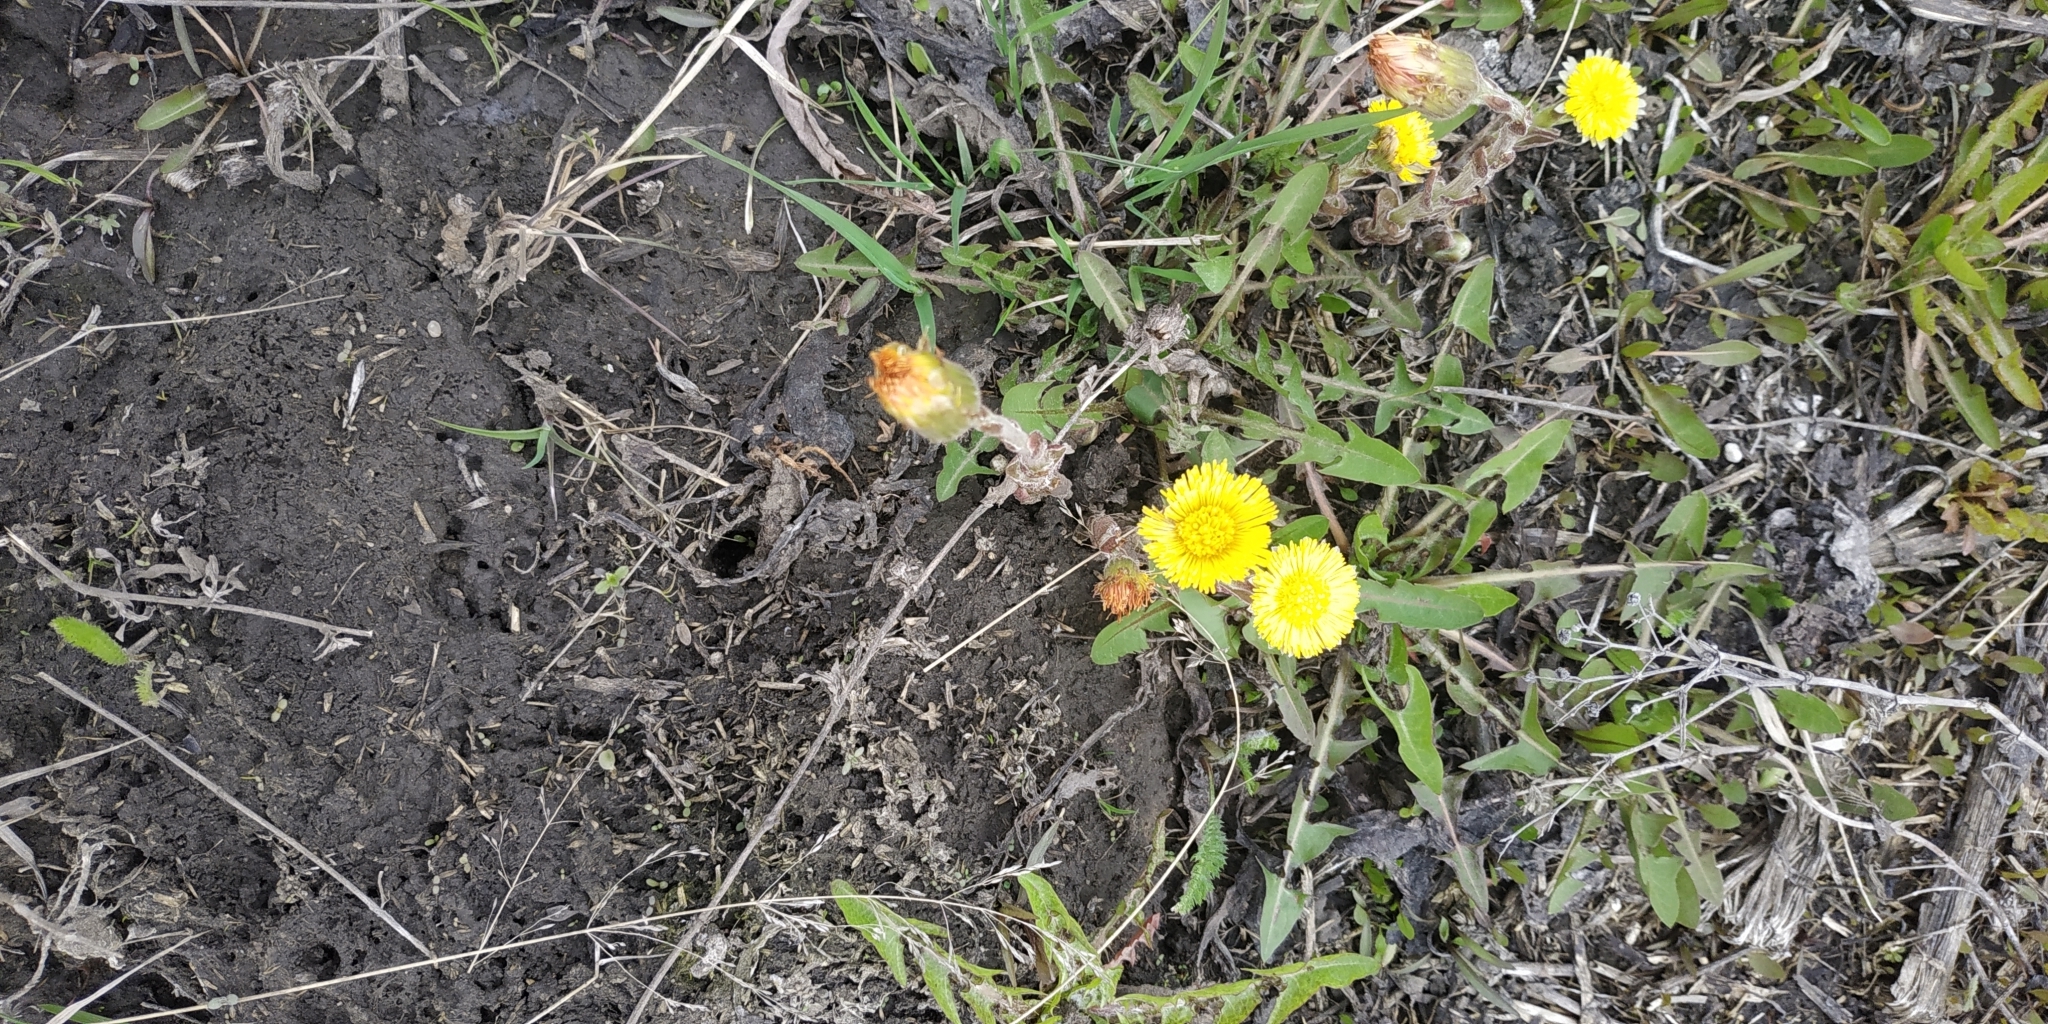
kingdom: Plantae
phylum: Tracheophyta
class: Magnoliopsida
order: Asterales
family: Asteraceae
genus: Tussilago
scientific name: Tussilago farfara
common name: Coltsfoot
